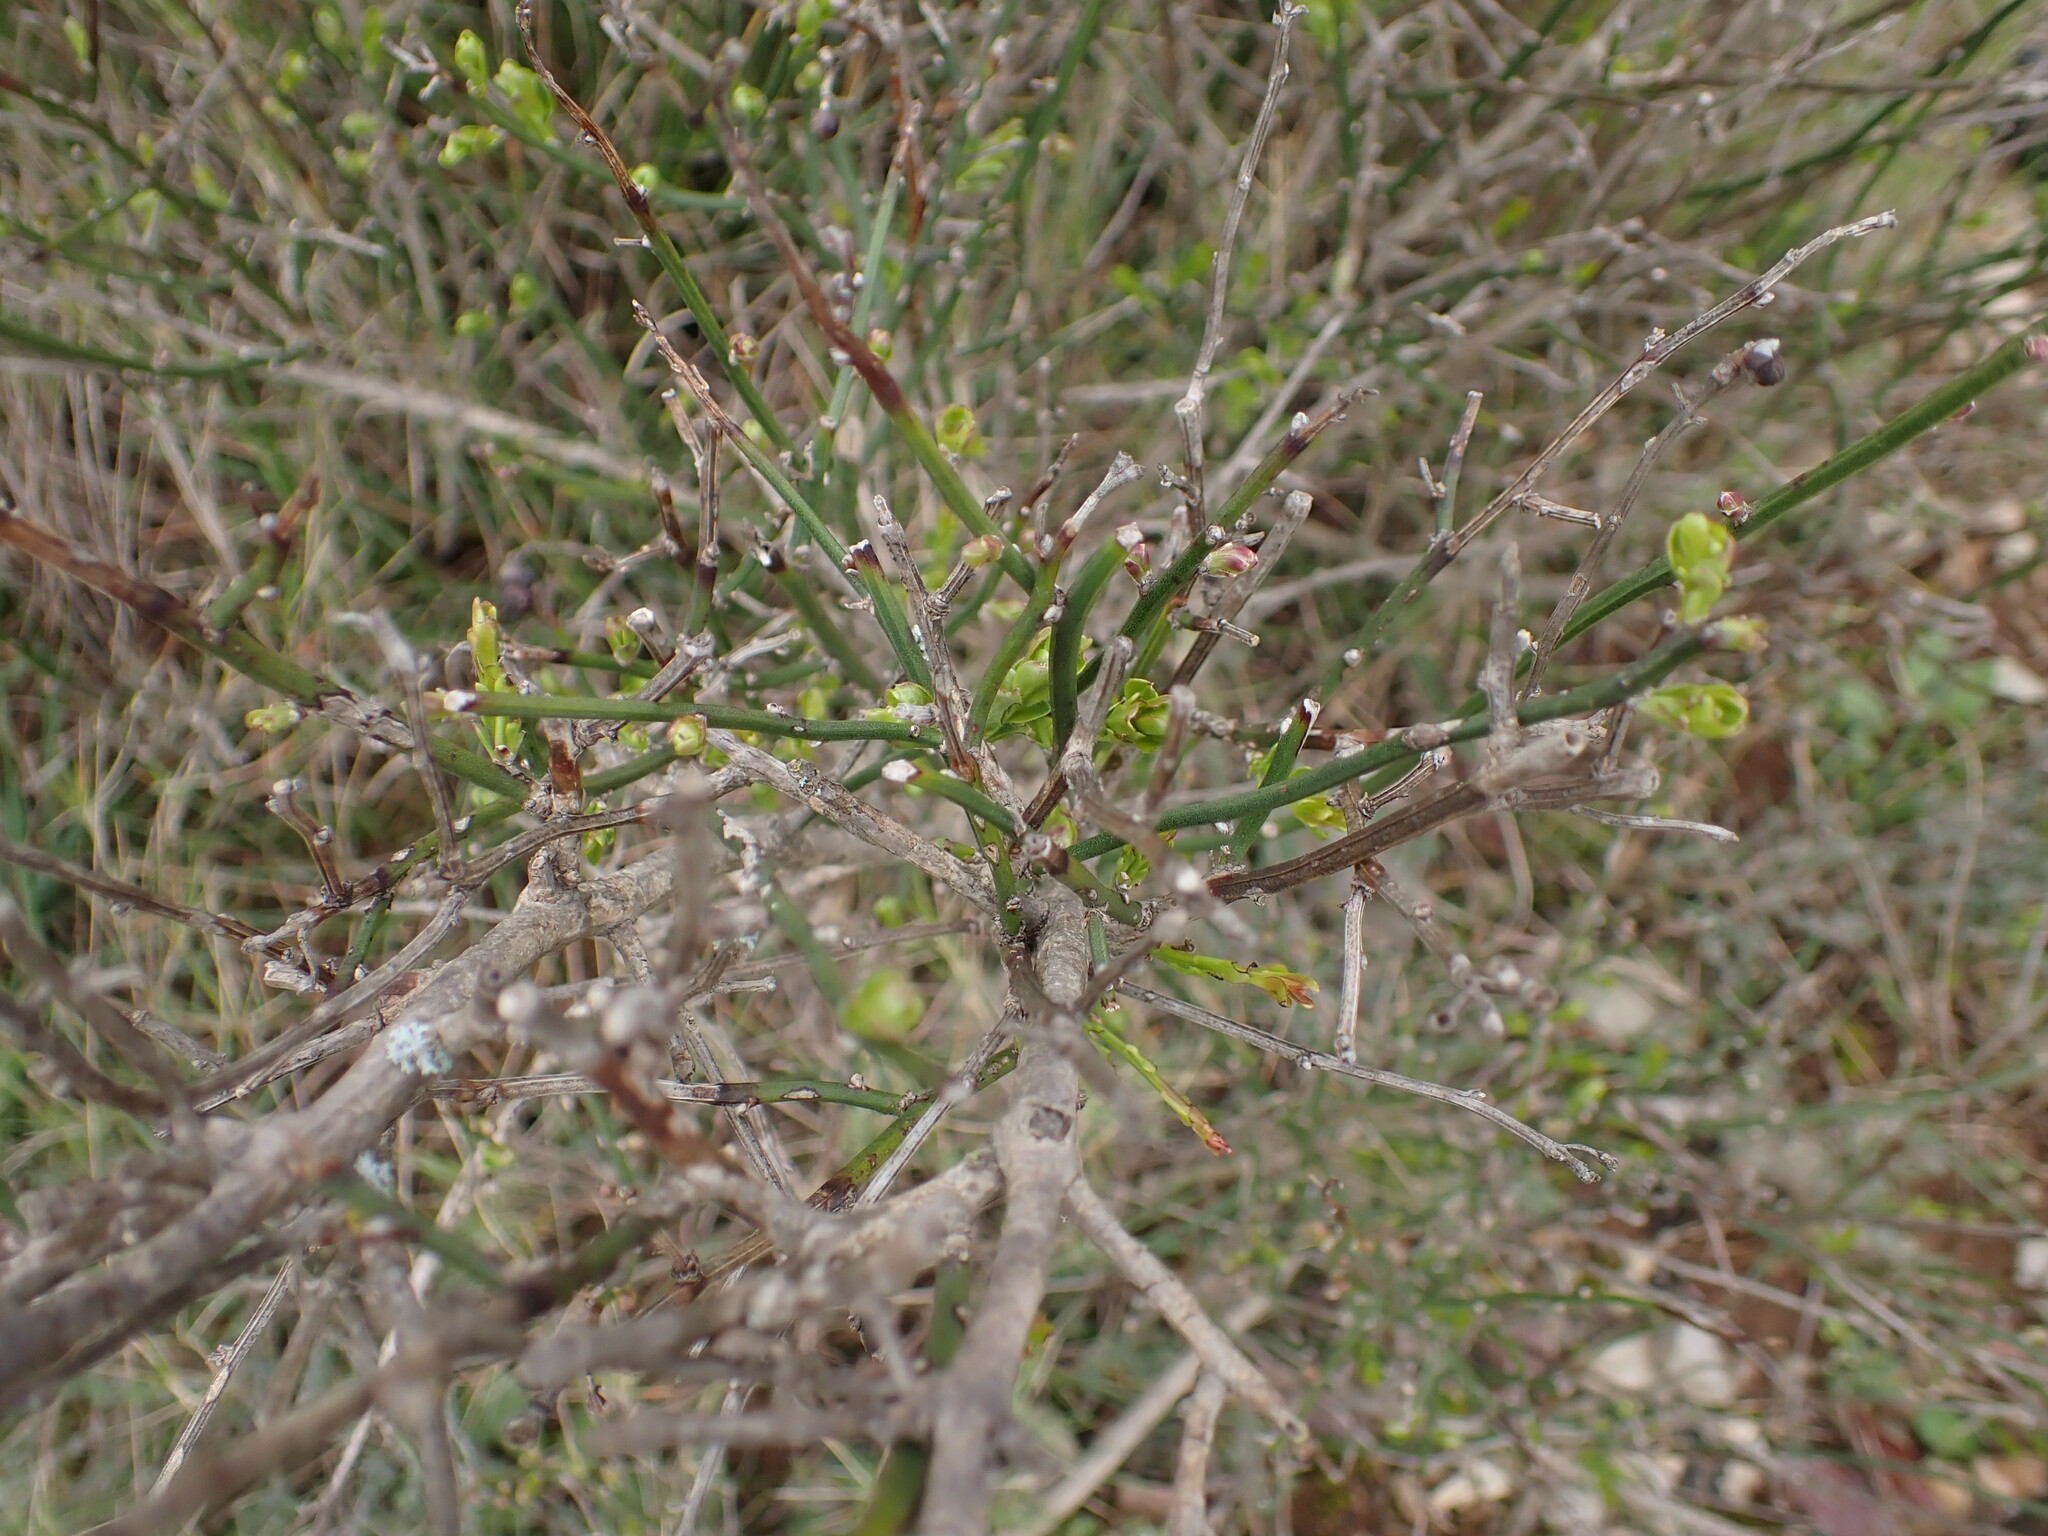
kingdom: Plantae
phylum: Tracheophyta
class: Magnoliopsida
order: Lamiales
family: Oleaceae
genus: Chrysojasminum
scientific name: Chrysojasminum fruticans
